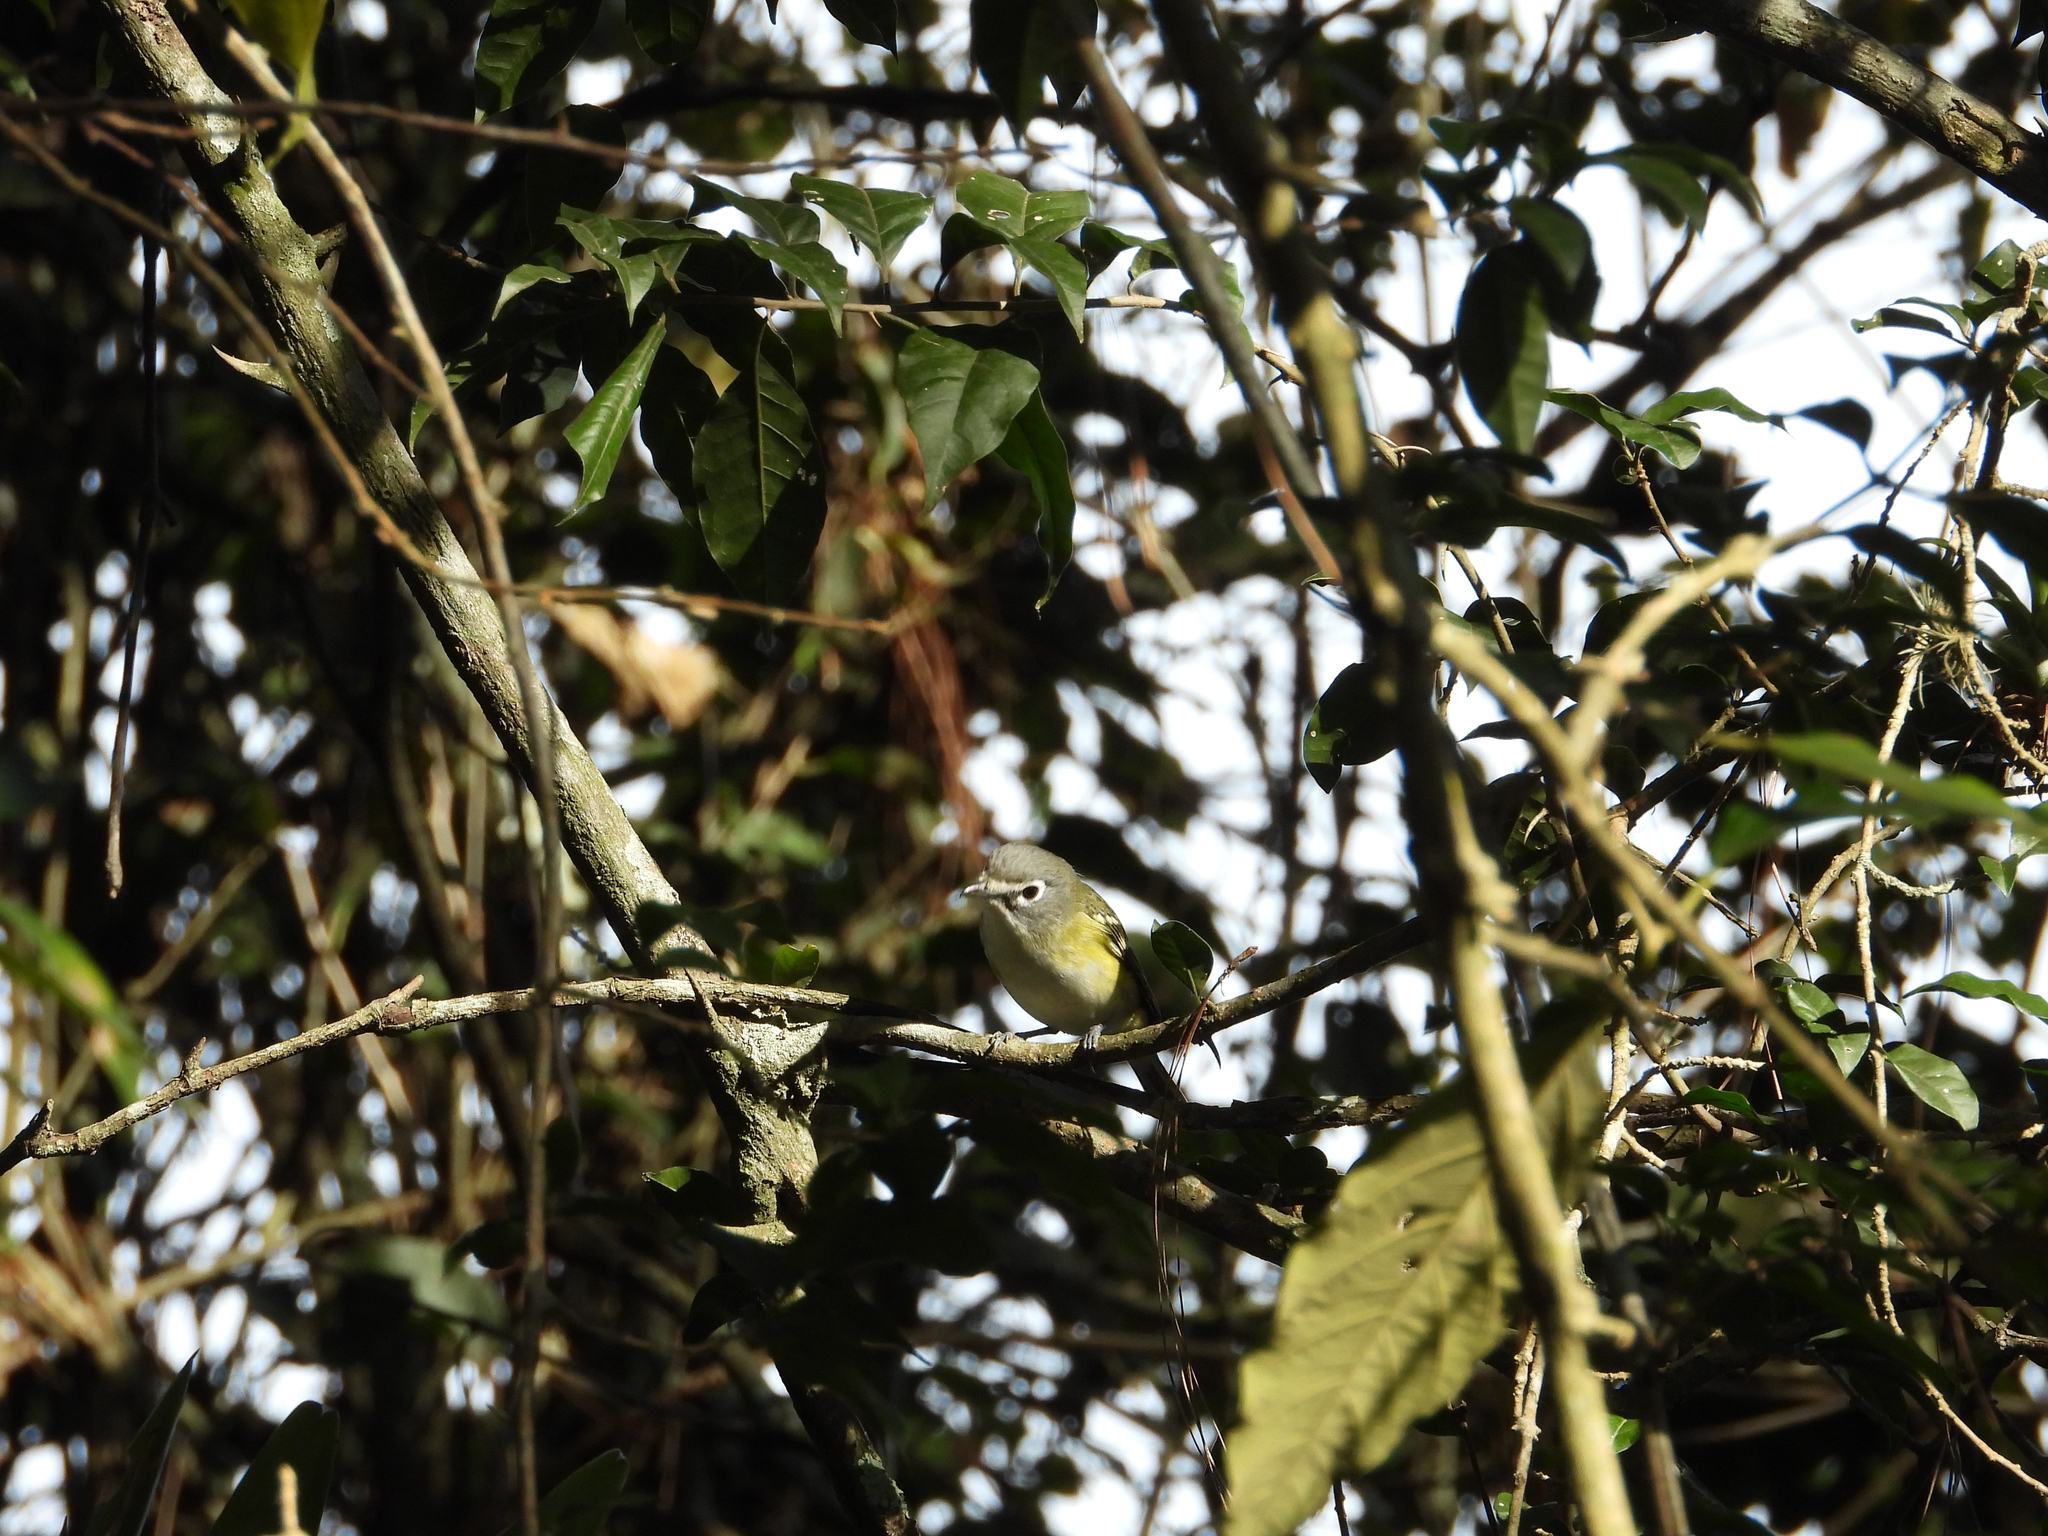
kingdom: Animalia
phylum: Chordata
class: Aves
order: Passeriformes
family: Vireonidae
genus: Vireo
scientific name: Vireo solitarius
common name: Blue-headed vireo
